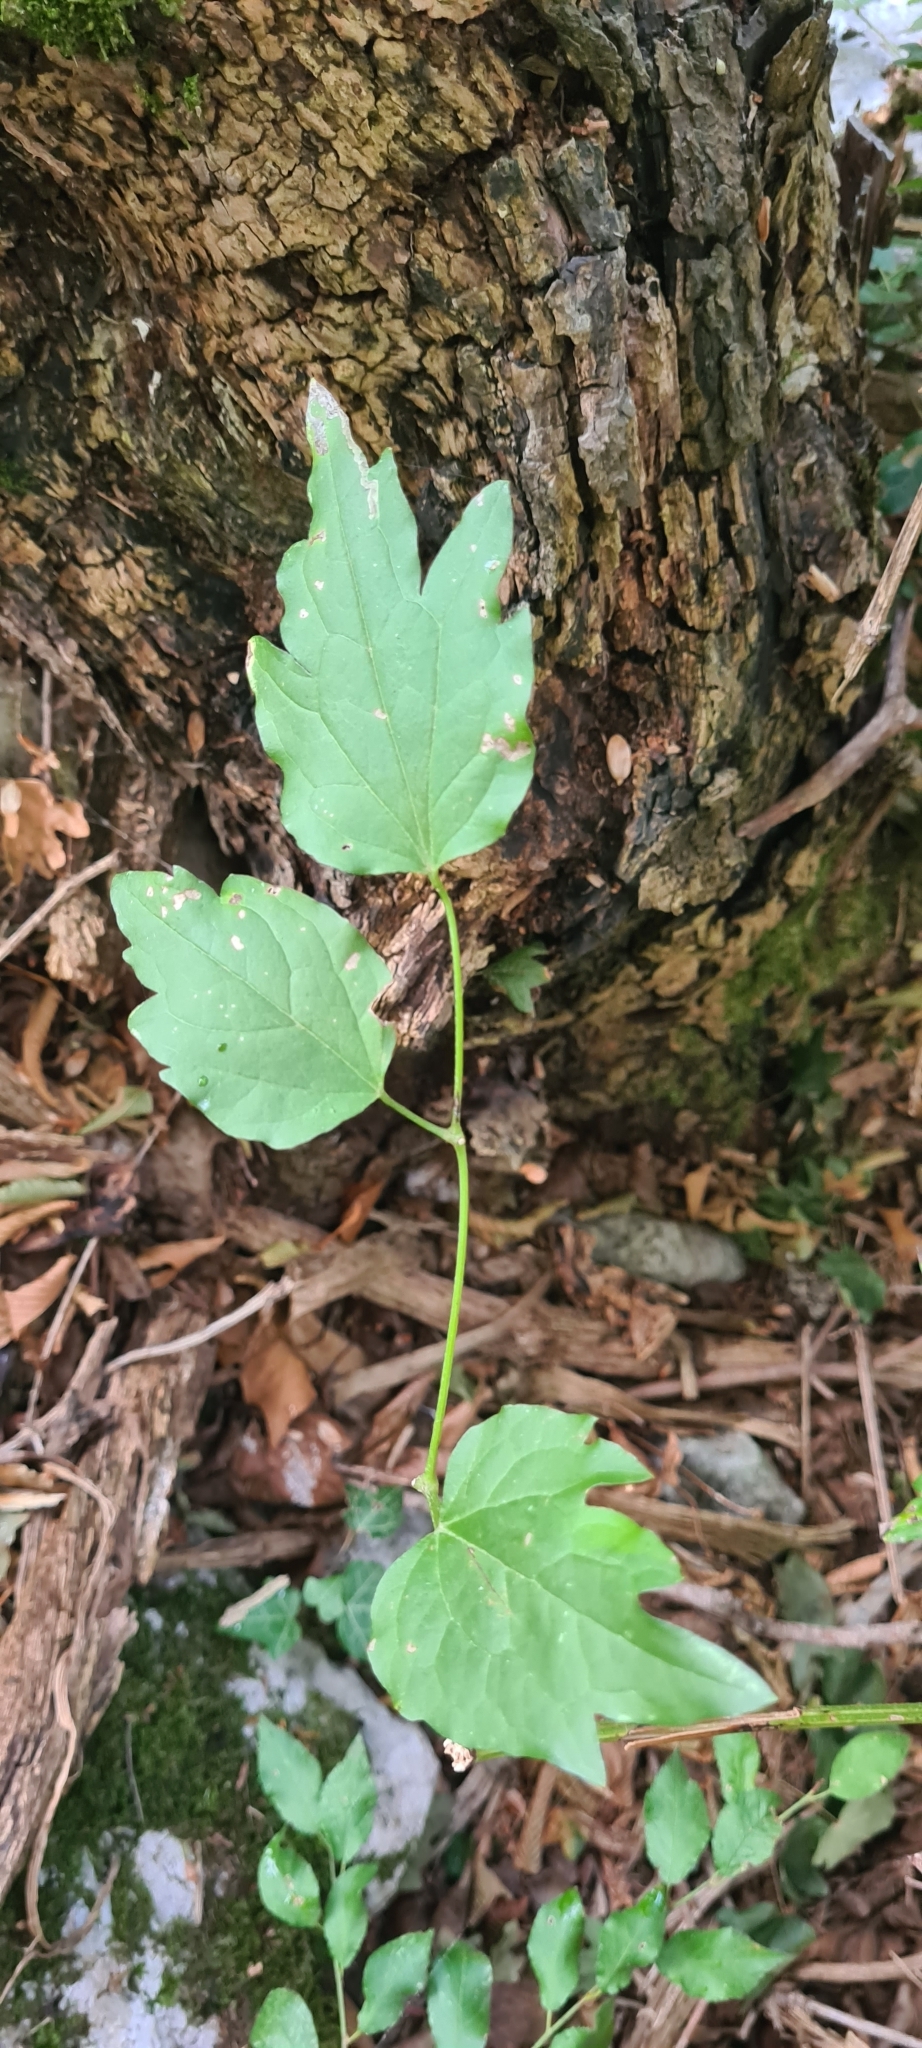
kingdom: Plantae
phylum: Tracheophyta
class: Magnoliopsida
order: Ranunculales
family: Ranunculaceae
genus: Clematis
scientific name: Clematis vitalba
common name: Evergreen clematis
